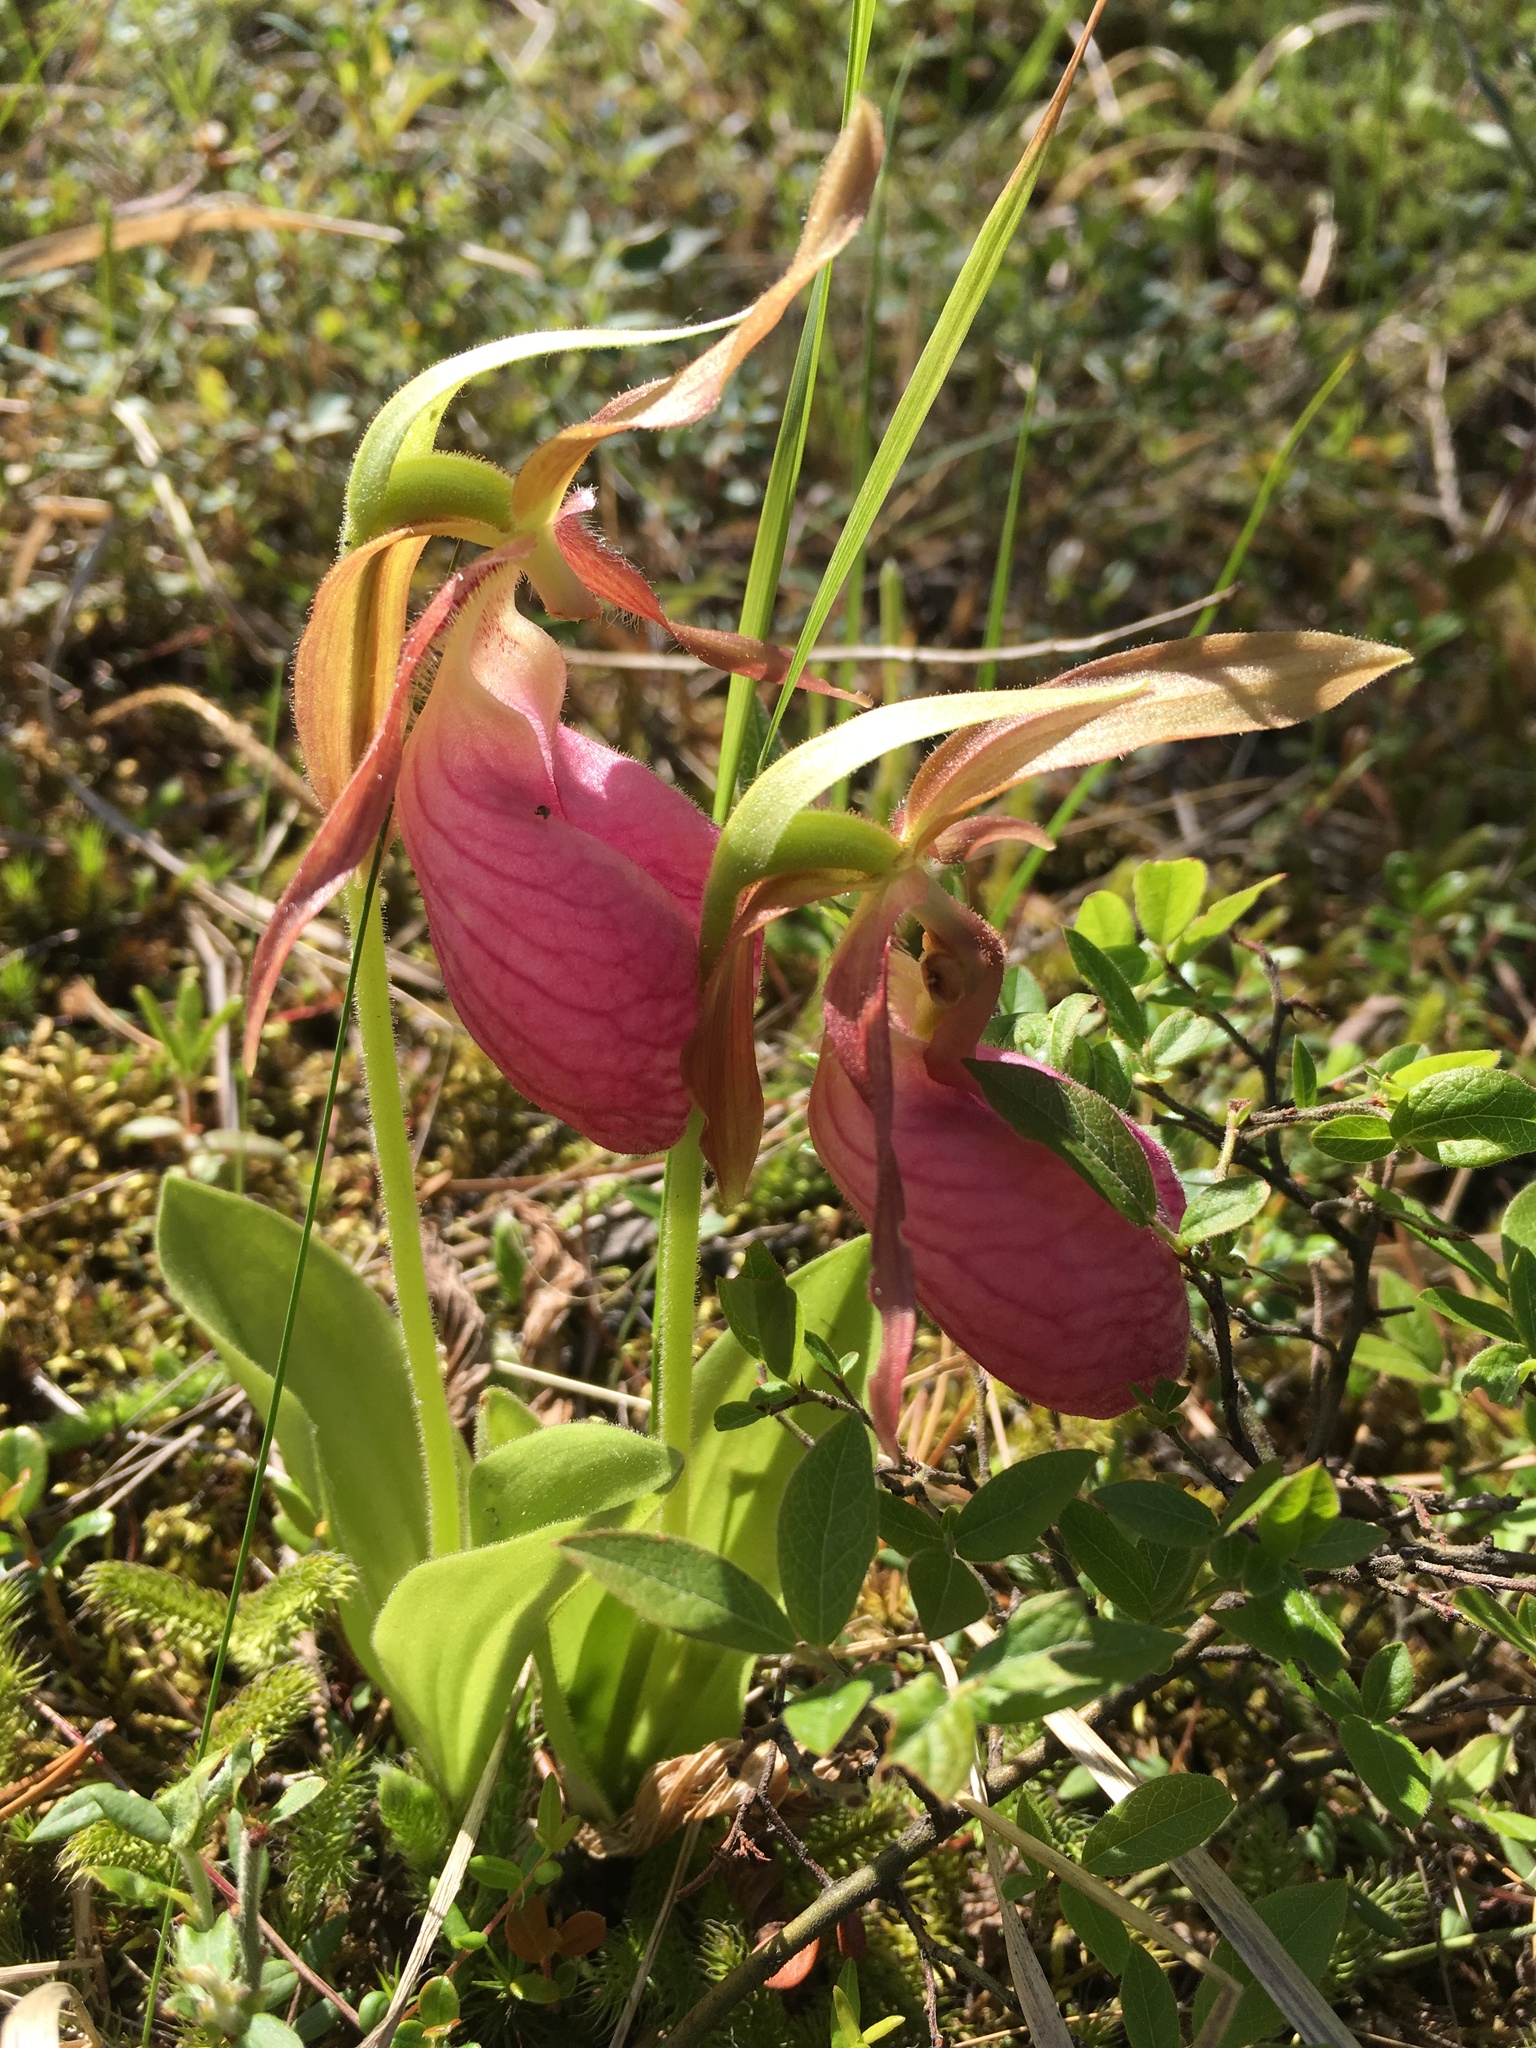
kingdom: Plantae
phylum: Tracheophyta
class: Liliopsida
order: Asparagales
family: Orchidaceae
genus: Cypripedium
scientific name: Cypripedium acaule
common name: Pink lady's-slipper
